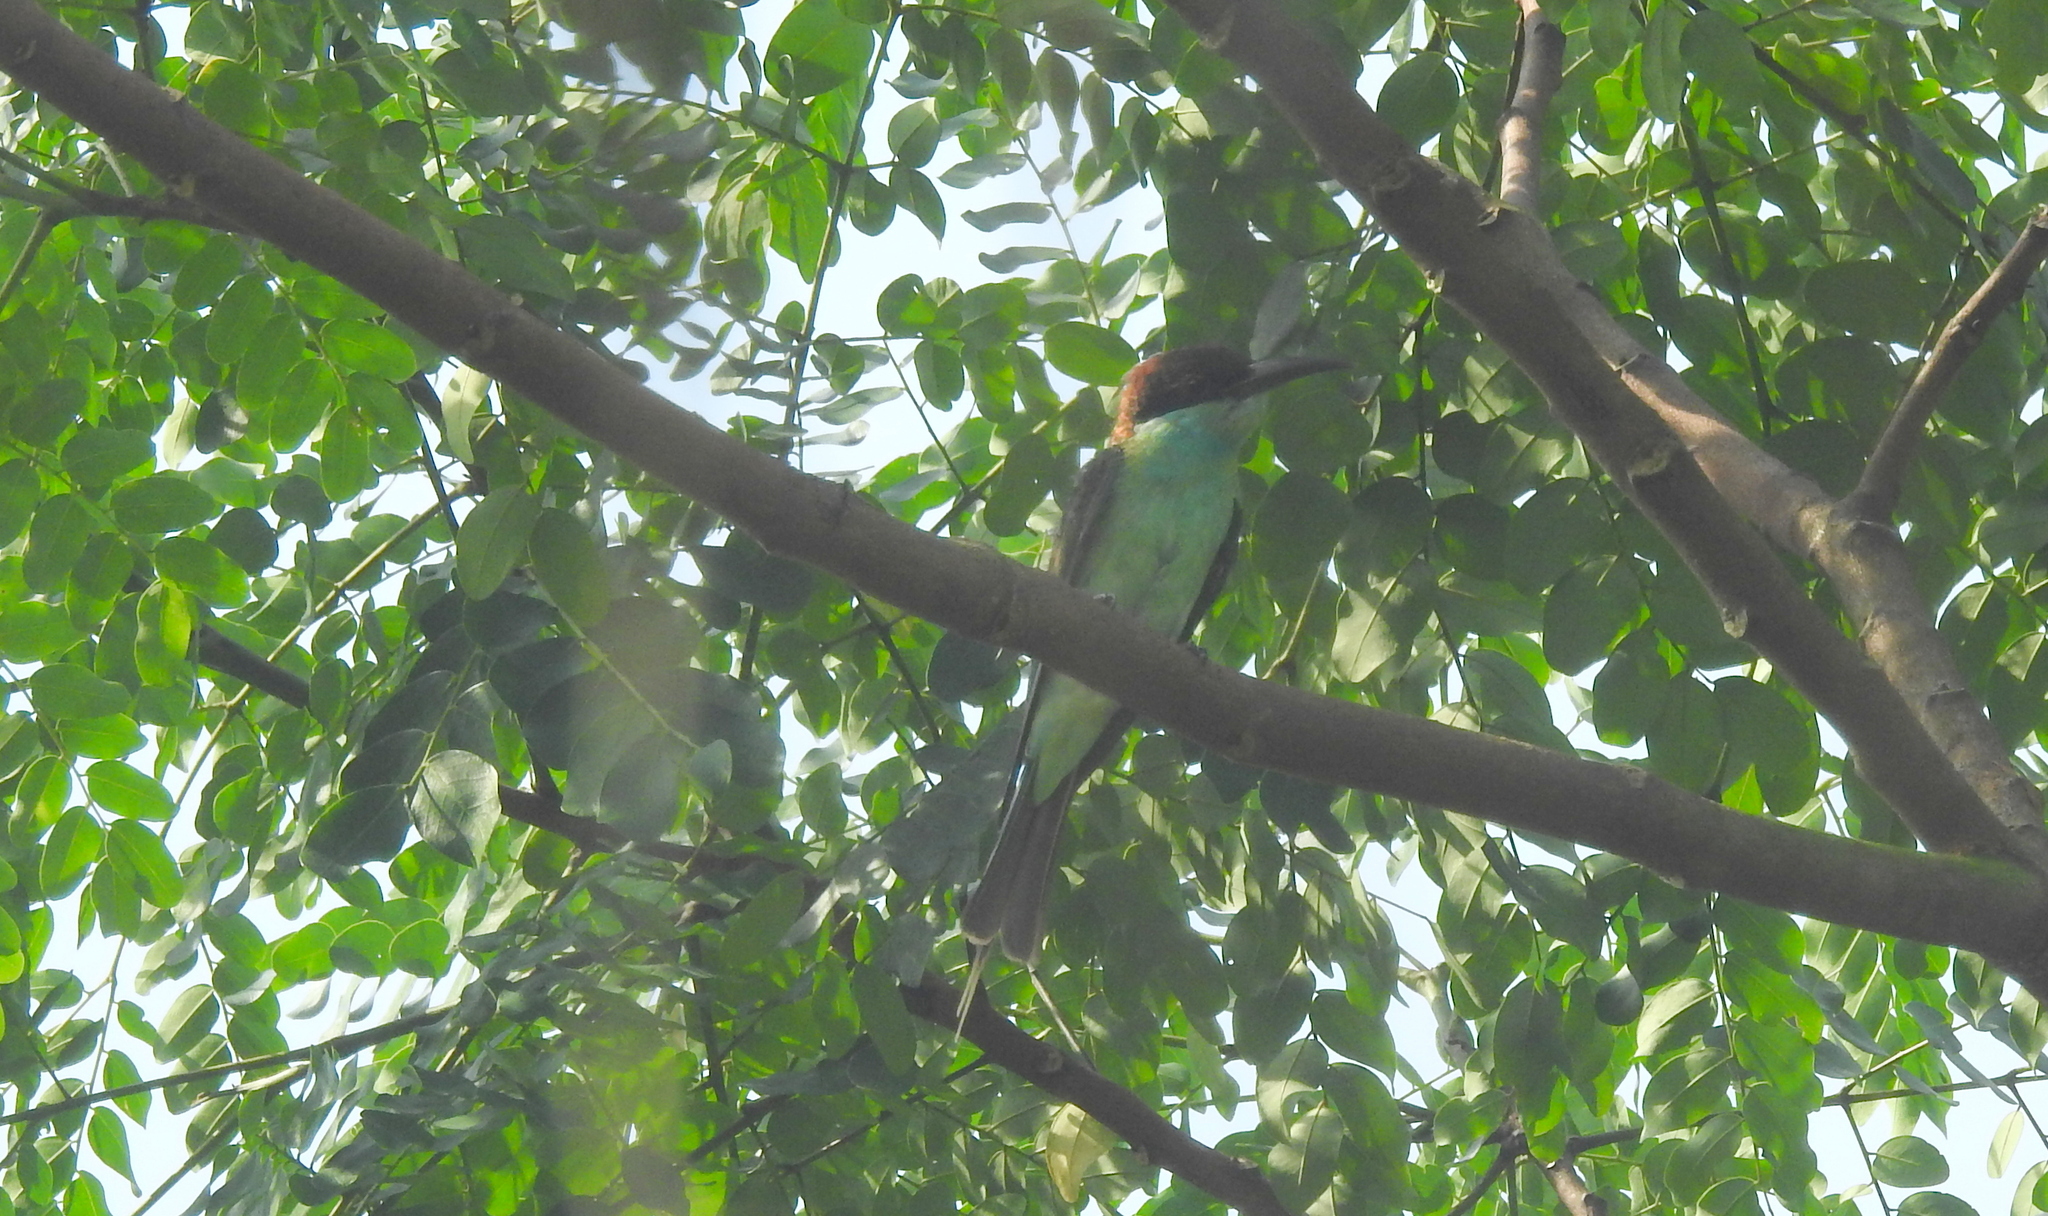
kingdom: Animalia
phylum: Chordata
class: Aves
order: Coraciiformes
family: Meropidae
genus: Merops
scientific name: Merops viridis
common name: Blue-throated bee-eater
